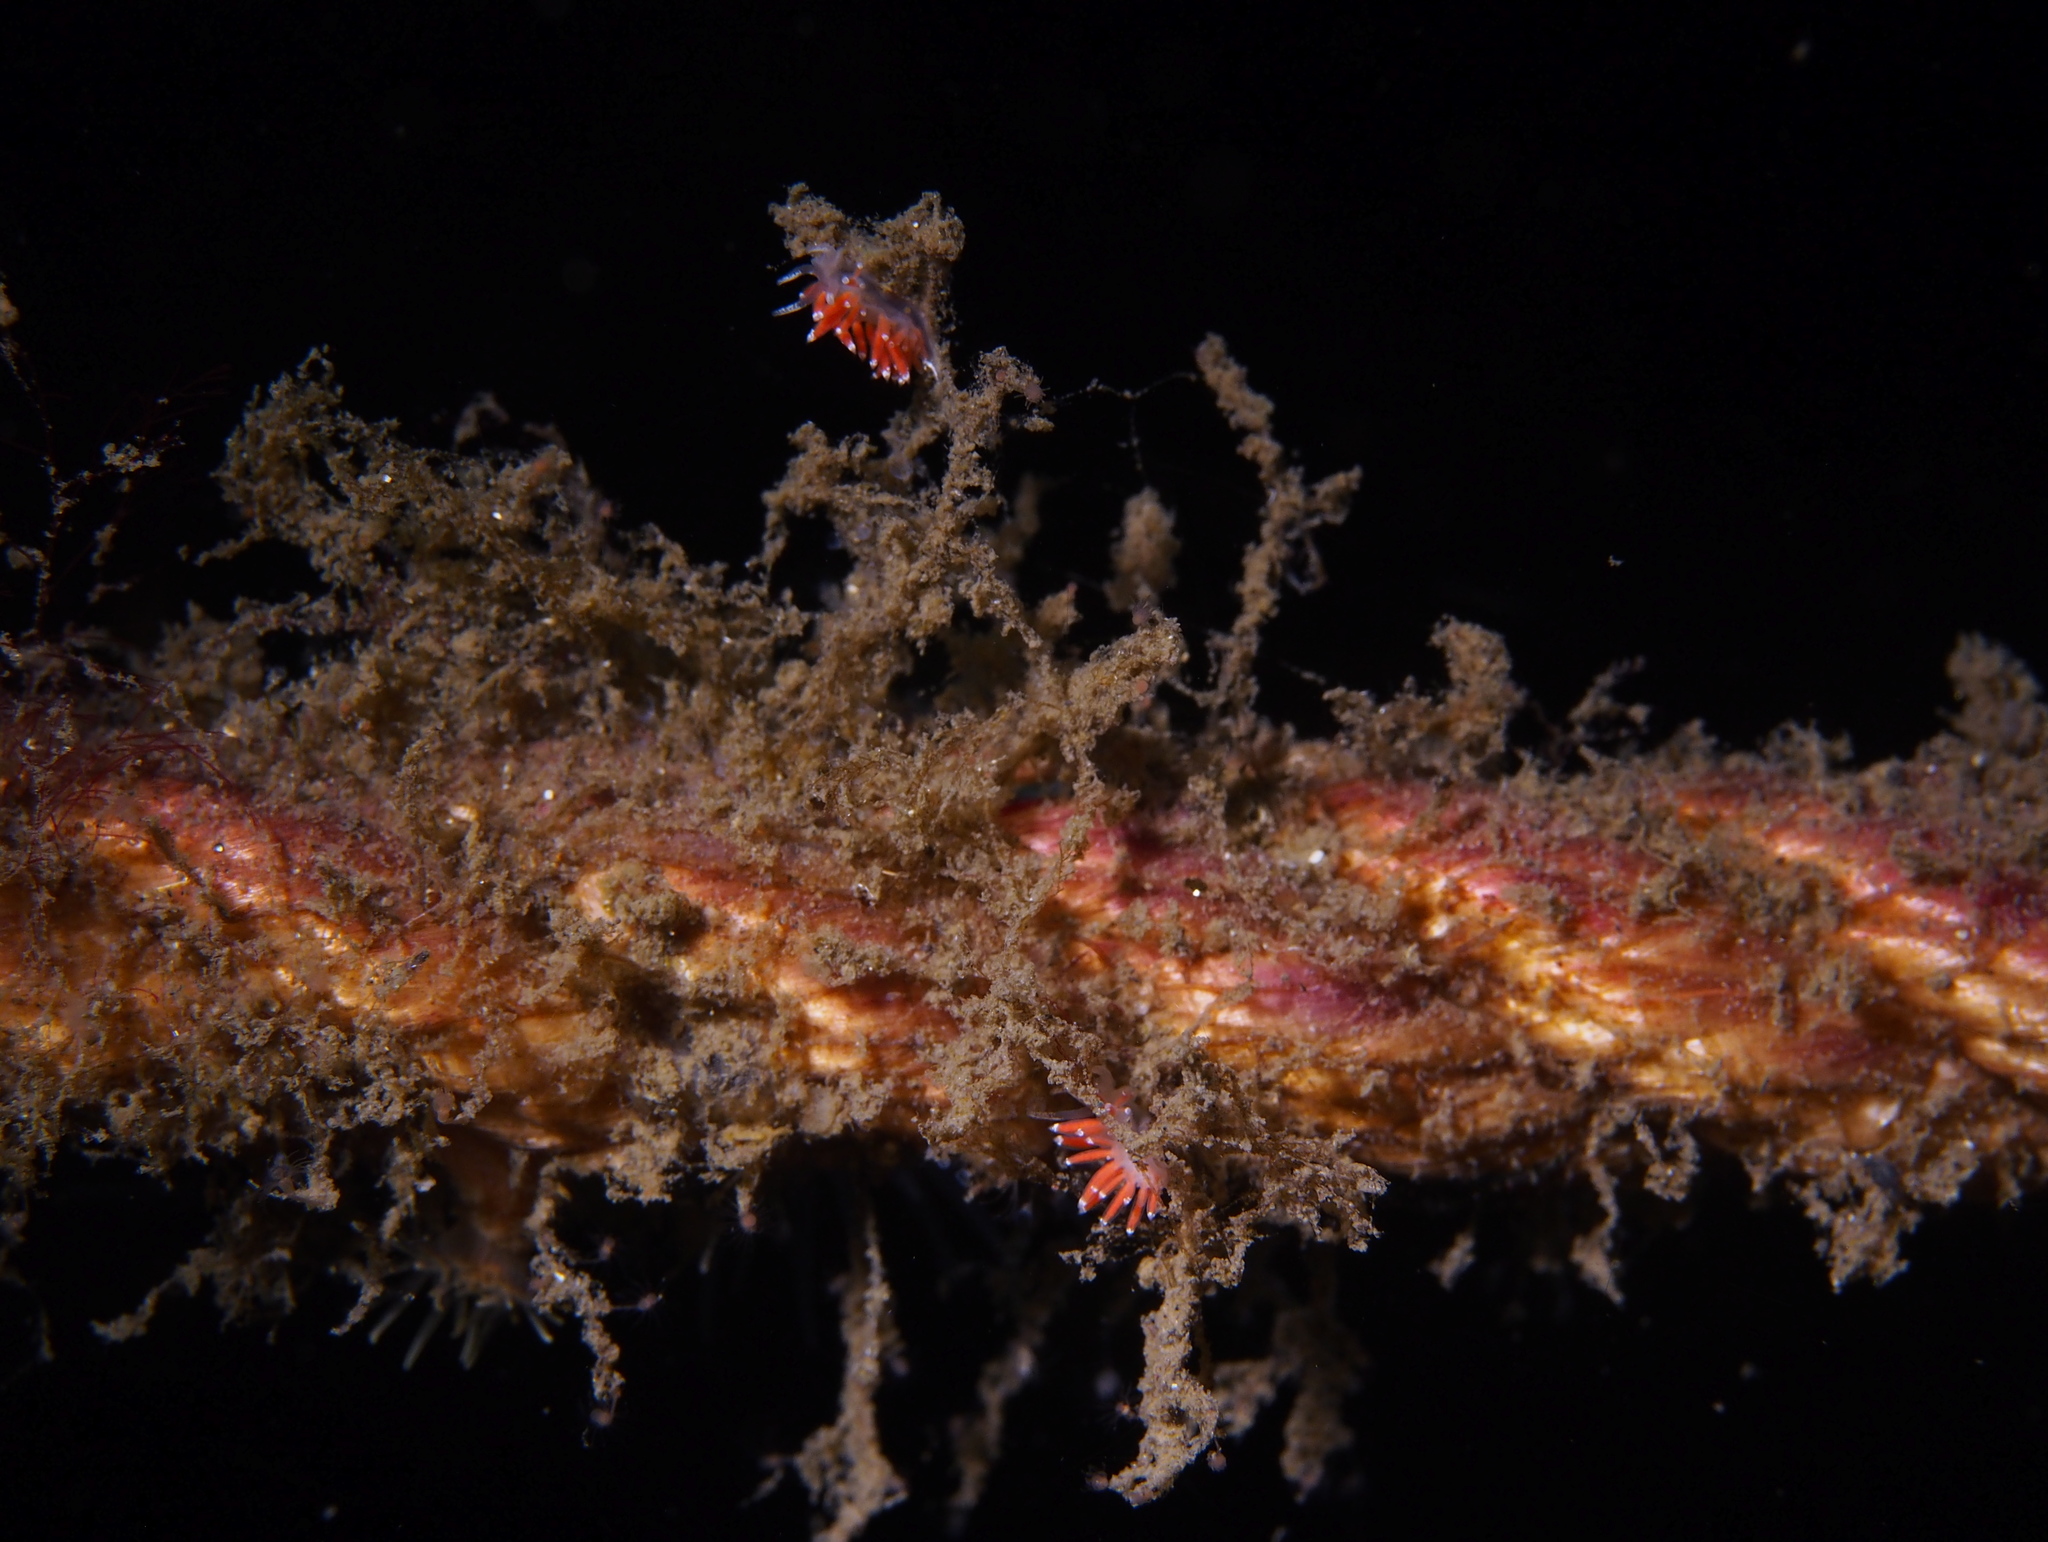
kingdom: Animalia
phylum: Mollusca
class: Gastropoda
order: Nudibranchia
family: Coryphellidae
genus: Coryphella
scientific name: Coryphella gracilis
